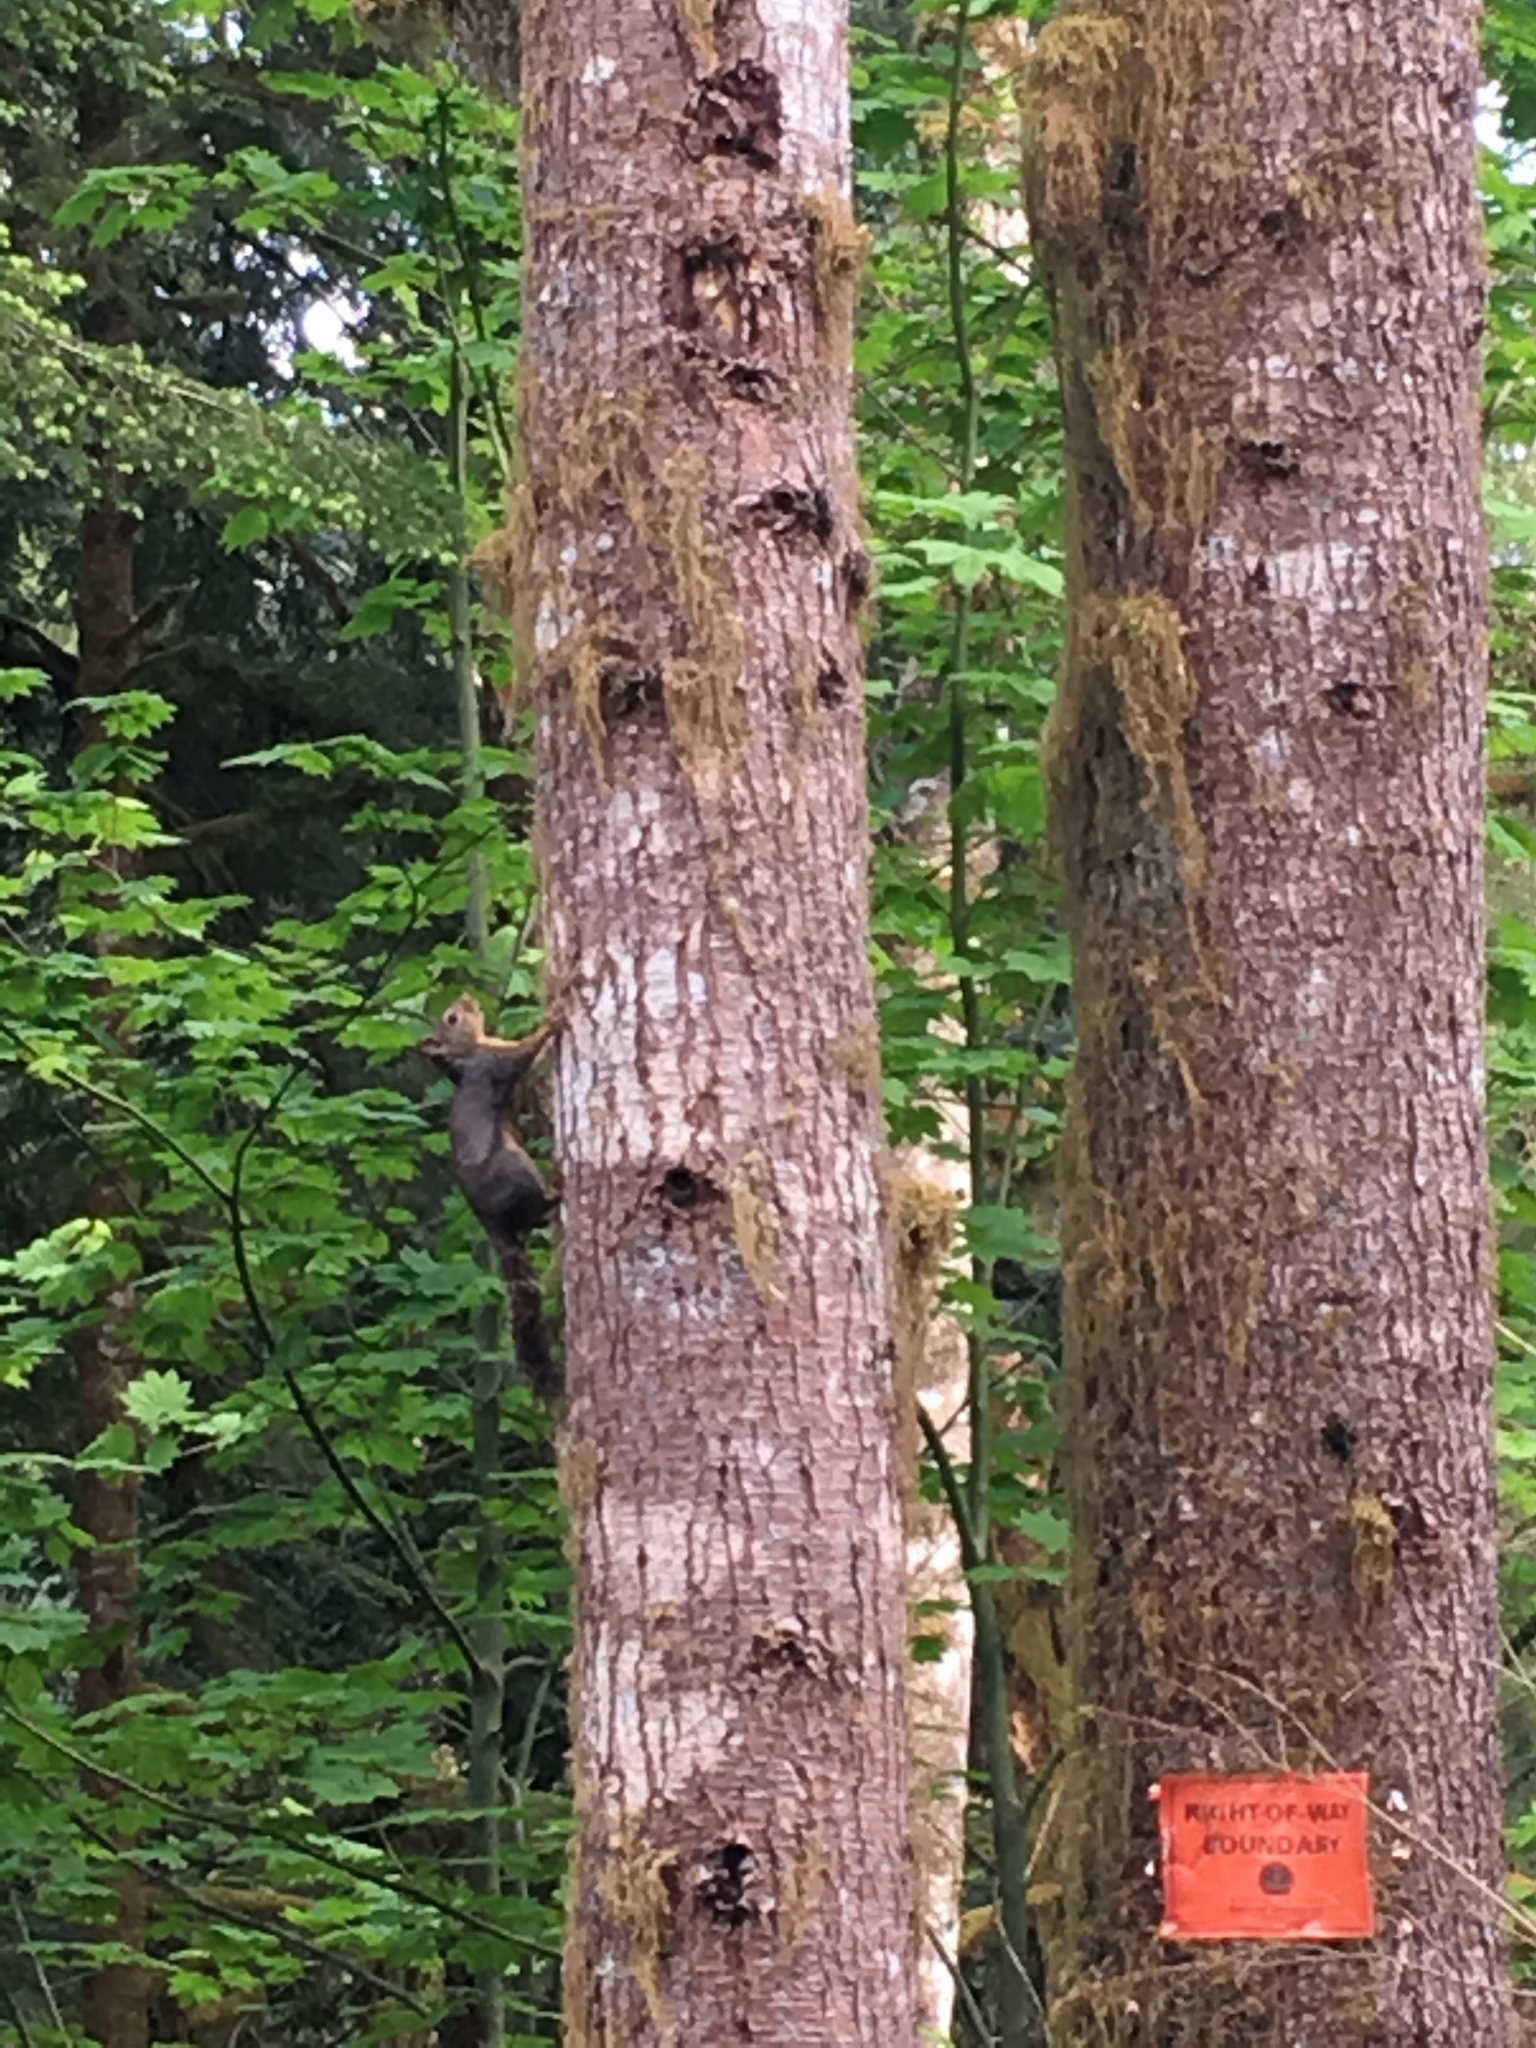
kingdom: Animalia
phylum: Chordata
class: Mammalia
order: Rodentia
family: Sciuridae
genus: Tamiasciurus
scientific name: Tamiasciurus douglasii
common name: Douglas's squirrel
